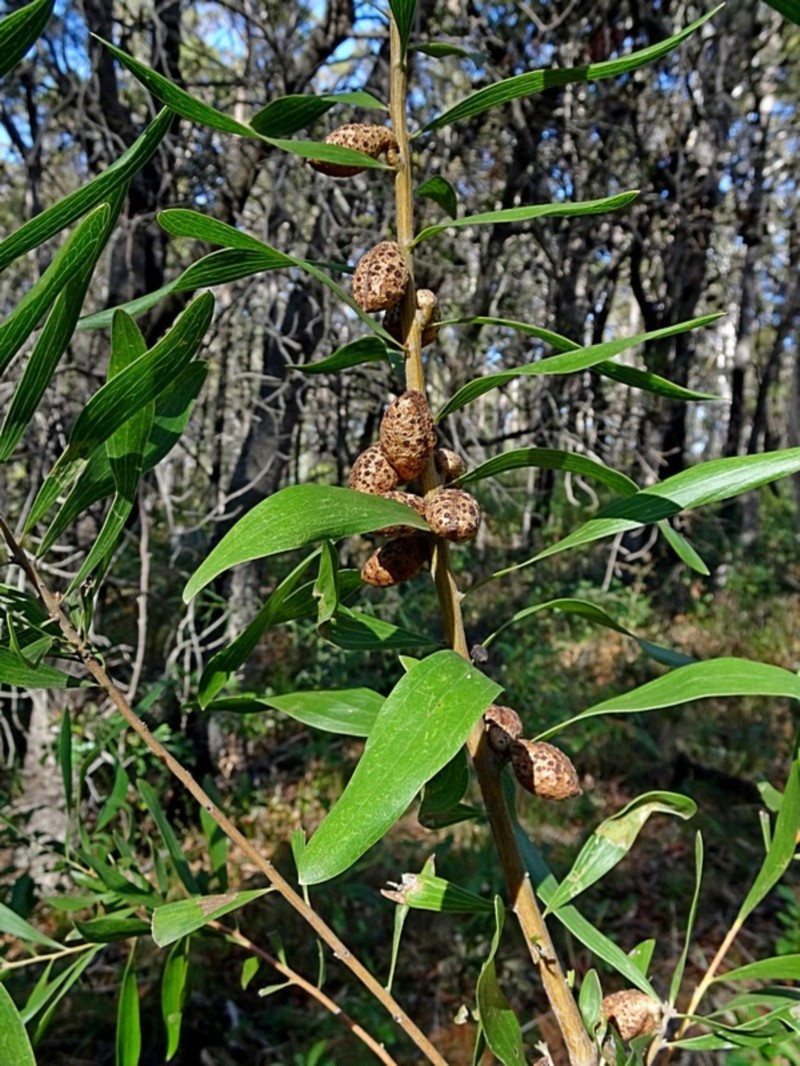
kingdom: Plantae
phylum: Tracheophyta
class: Magnoliopsida
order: Proteales
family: Proteaceae
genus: Hakea
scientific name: Hakea dactyloides
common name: Finger hakea
